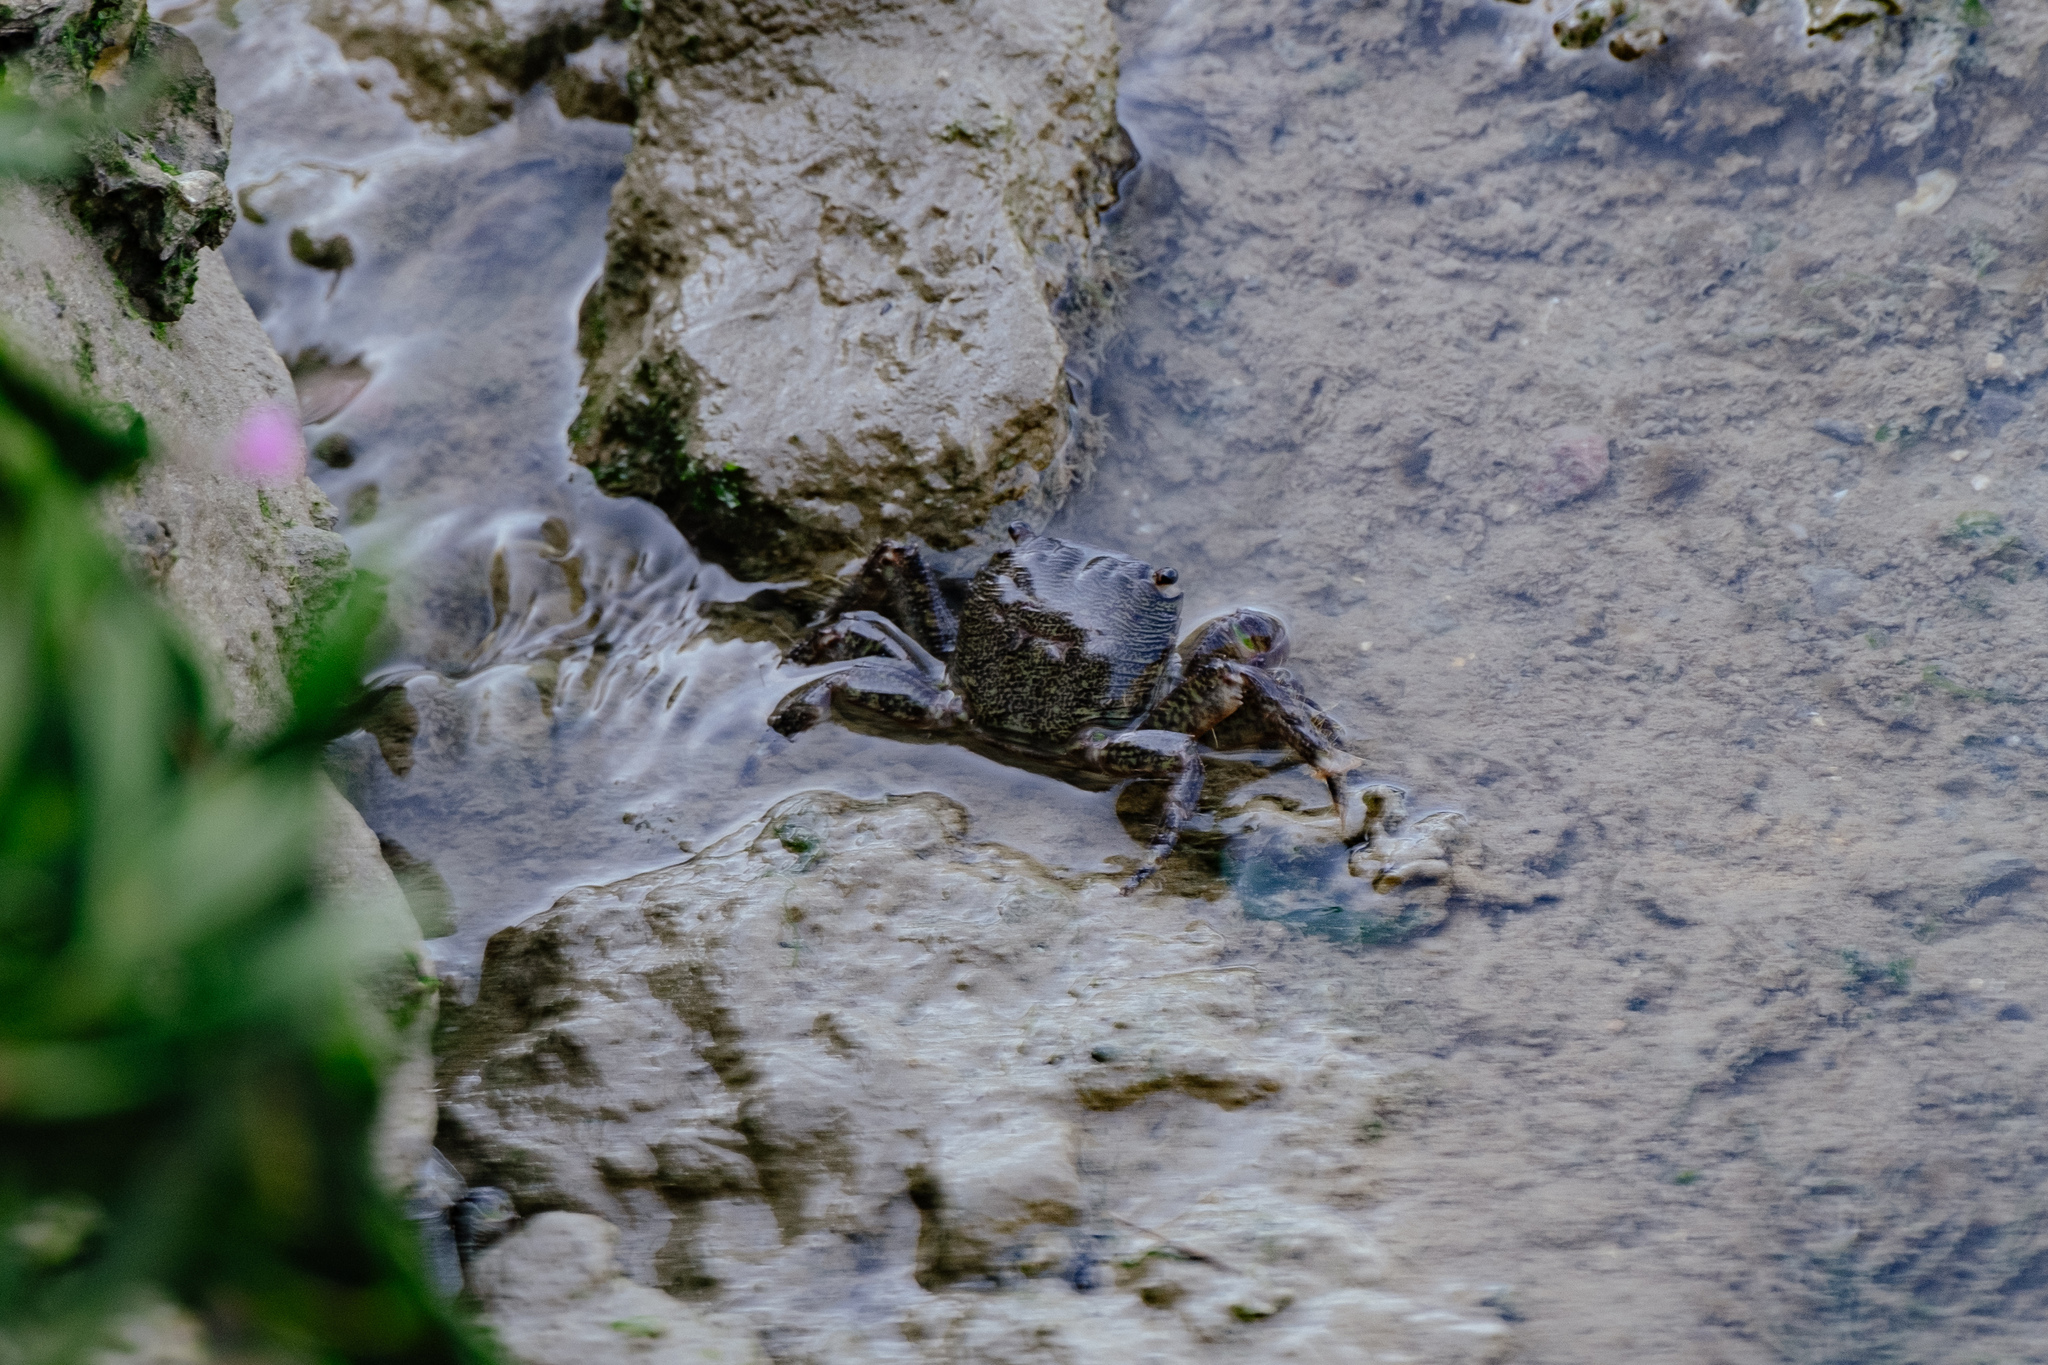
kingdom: Animalia
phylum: Arthropoda
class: Malacostraca
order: Decapoda
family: Grapsidae
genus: Pachygrapsus
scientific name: Pachygrapsus marmoratus
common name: Marbled rock crab
